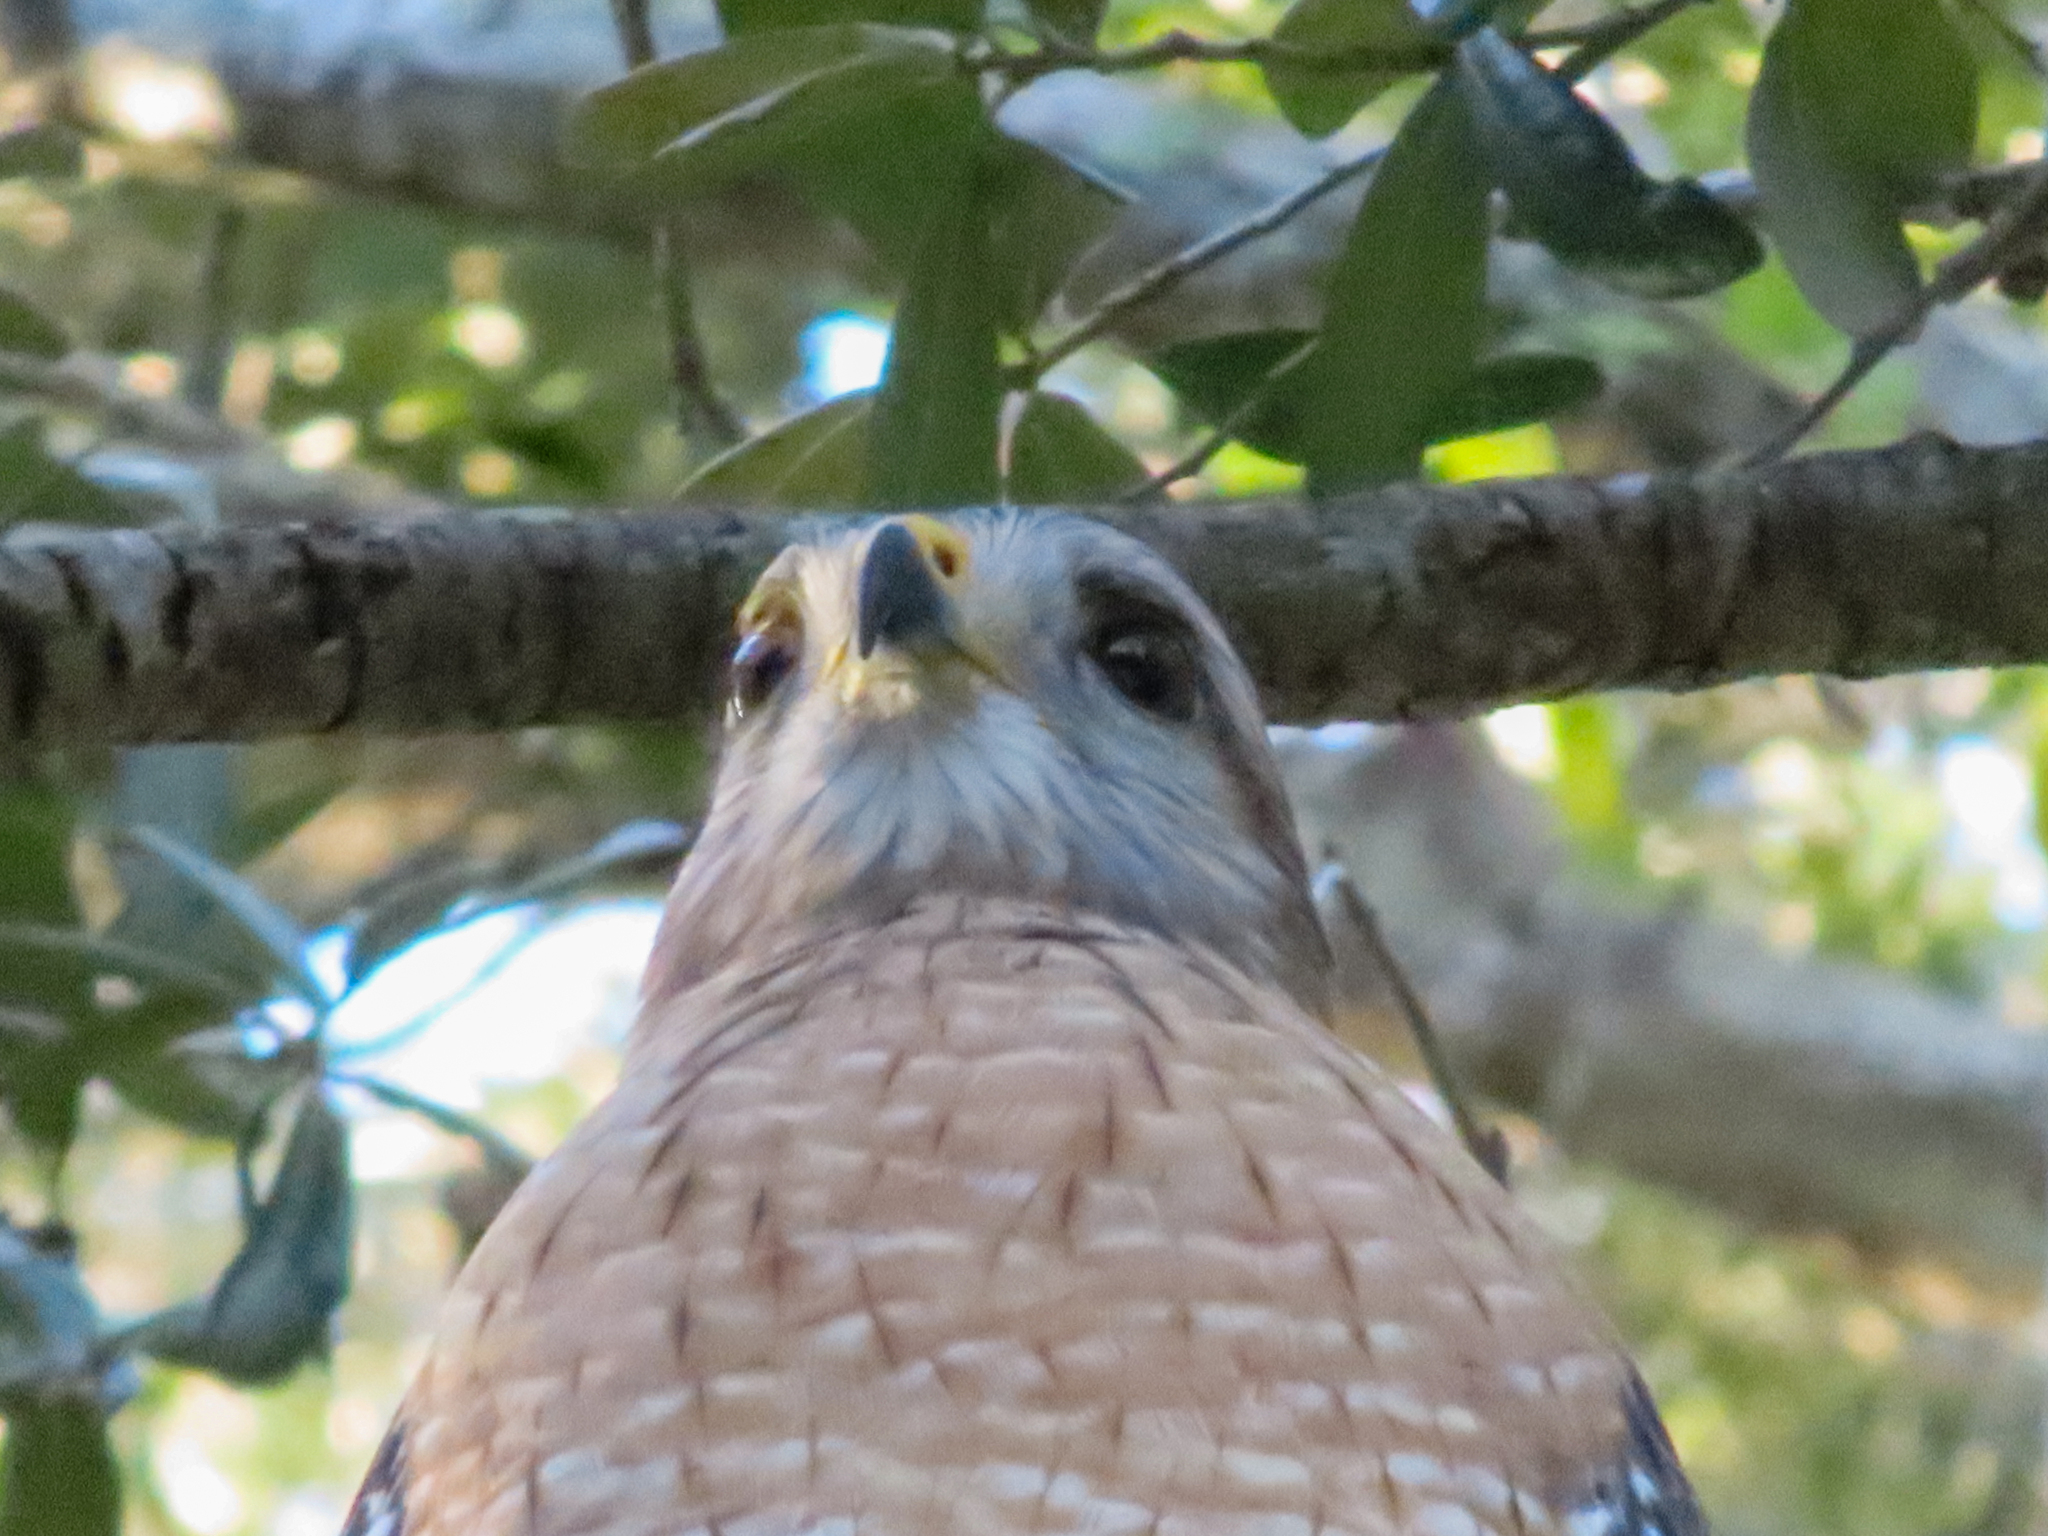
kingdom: Animalia
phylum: Chordata
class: Aves
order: Accipitriformes
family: Accipitridae
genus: Buteo
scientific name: Buteo lineatus
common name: Red-shouldered hawk
